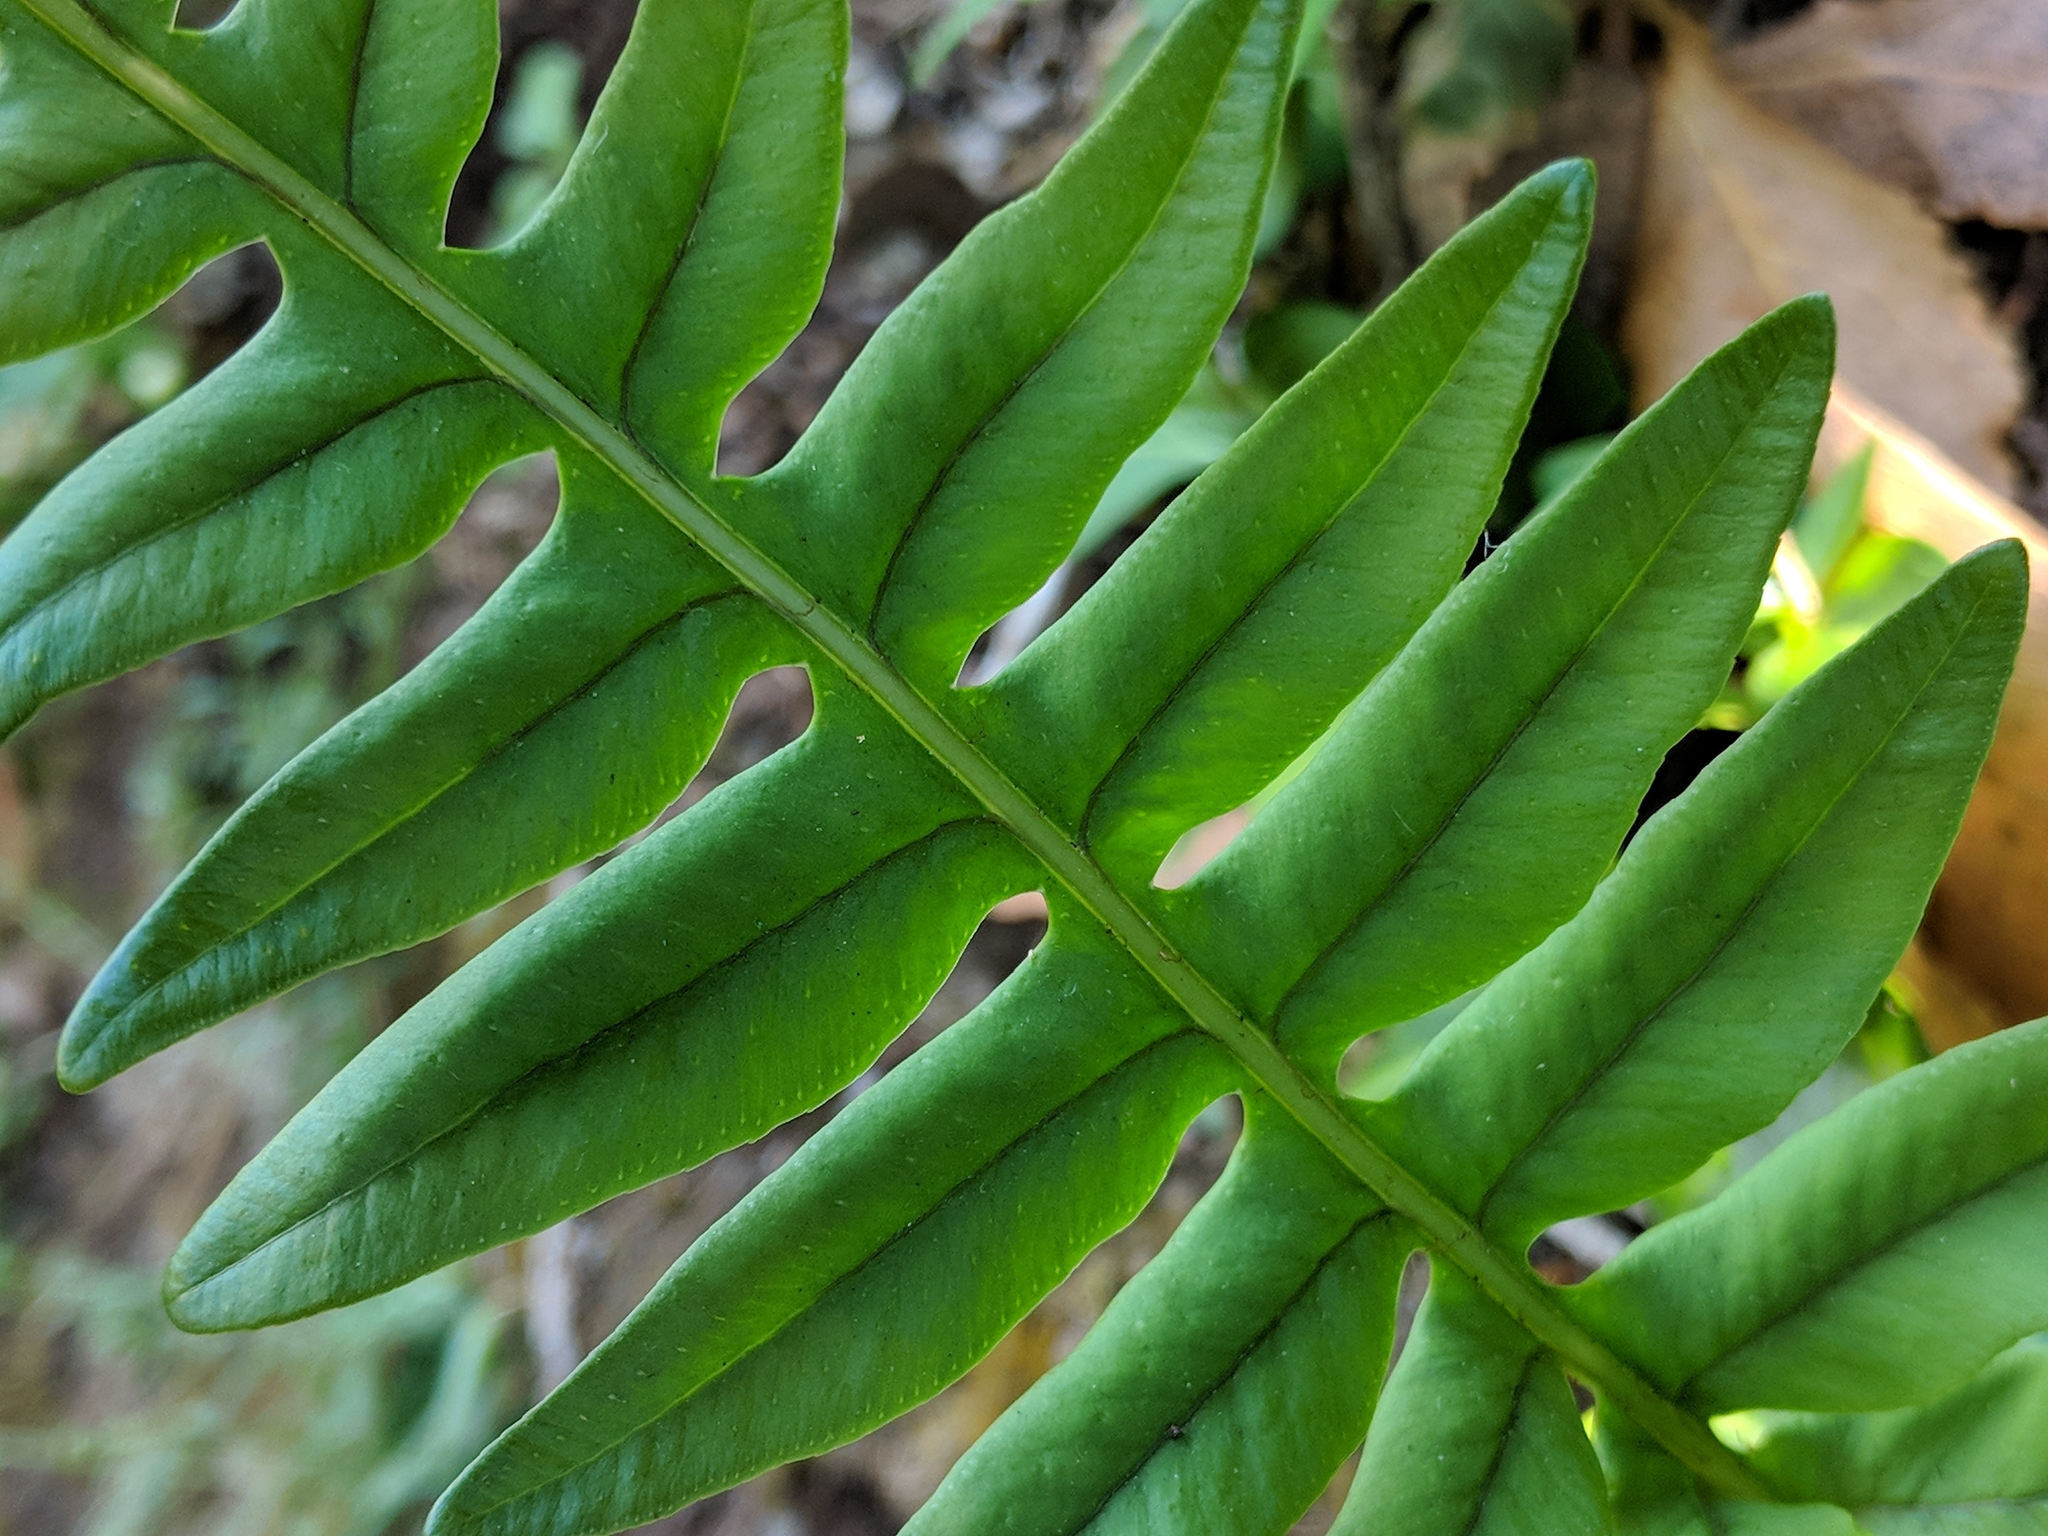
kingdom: Plantae
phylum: Tracheophyta
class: Polypodiopsida
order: Polypodiales
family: Polypodiaceae
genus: Polypodium
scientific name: Polypodium interjectum
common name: Intermediate polypody
